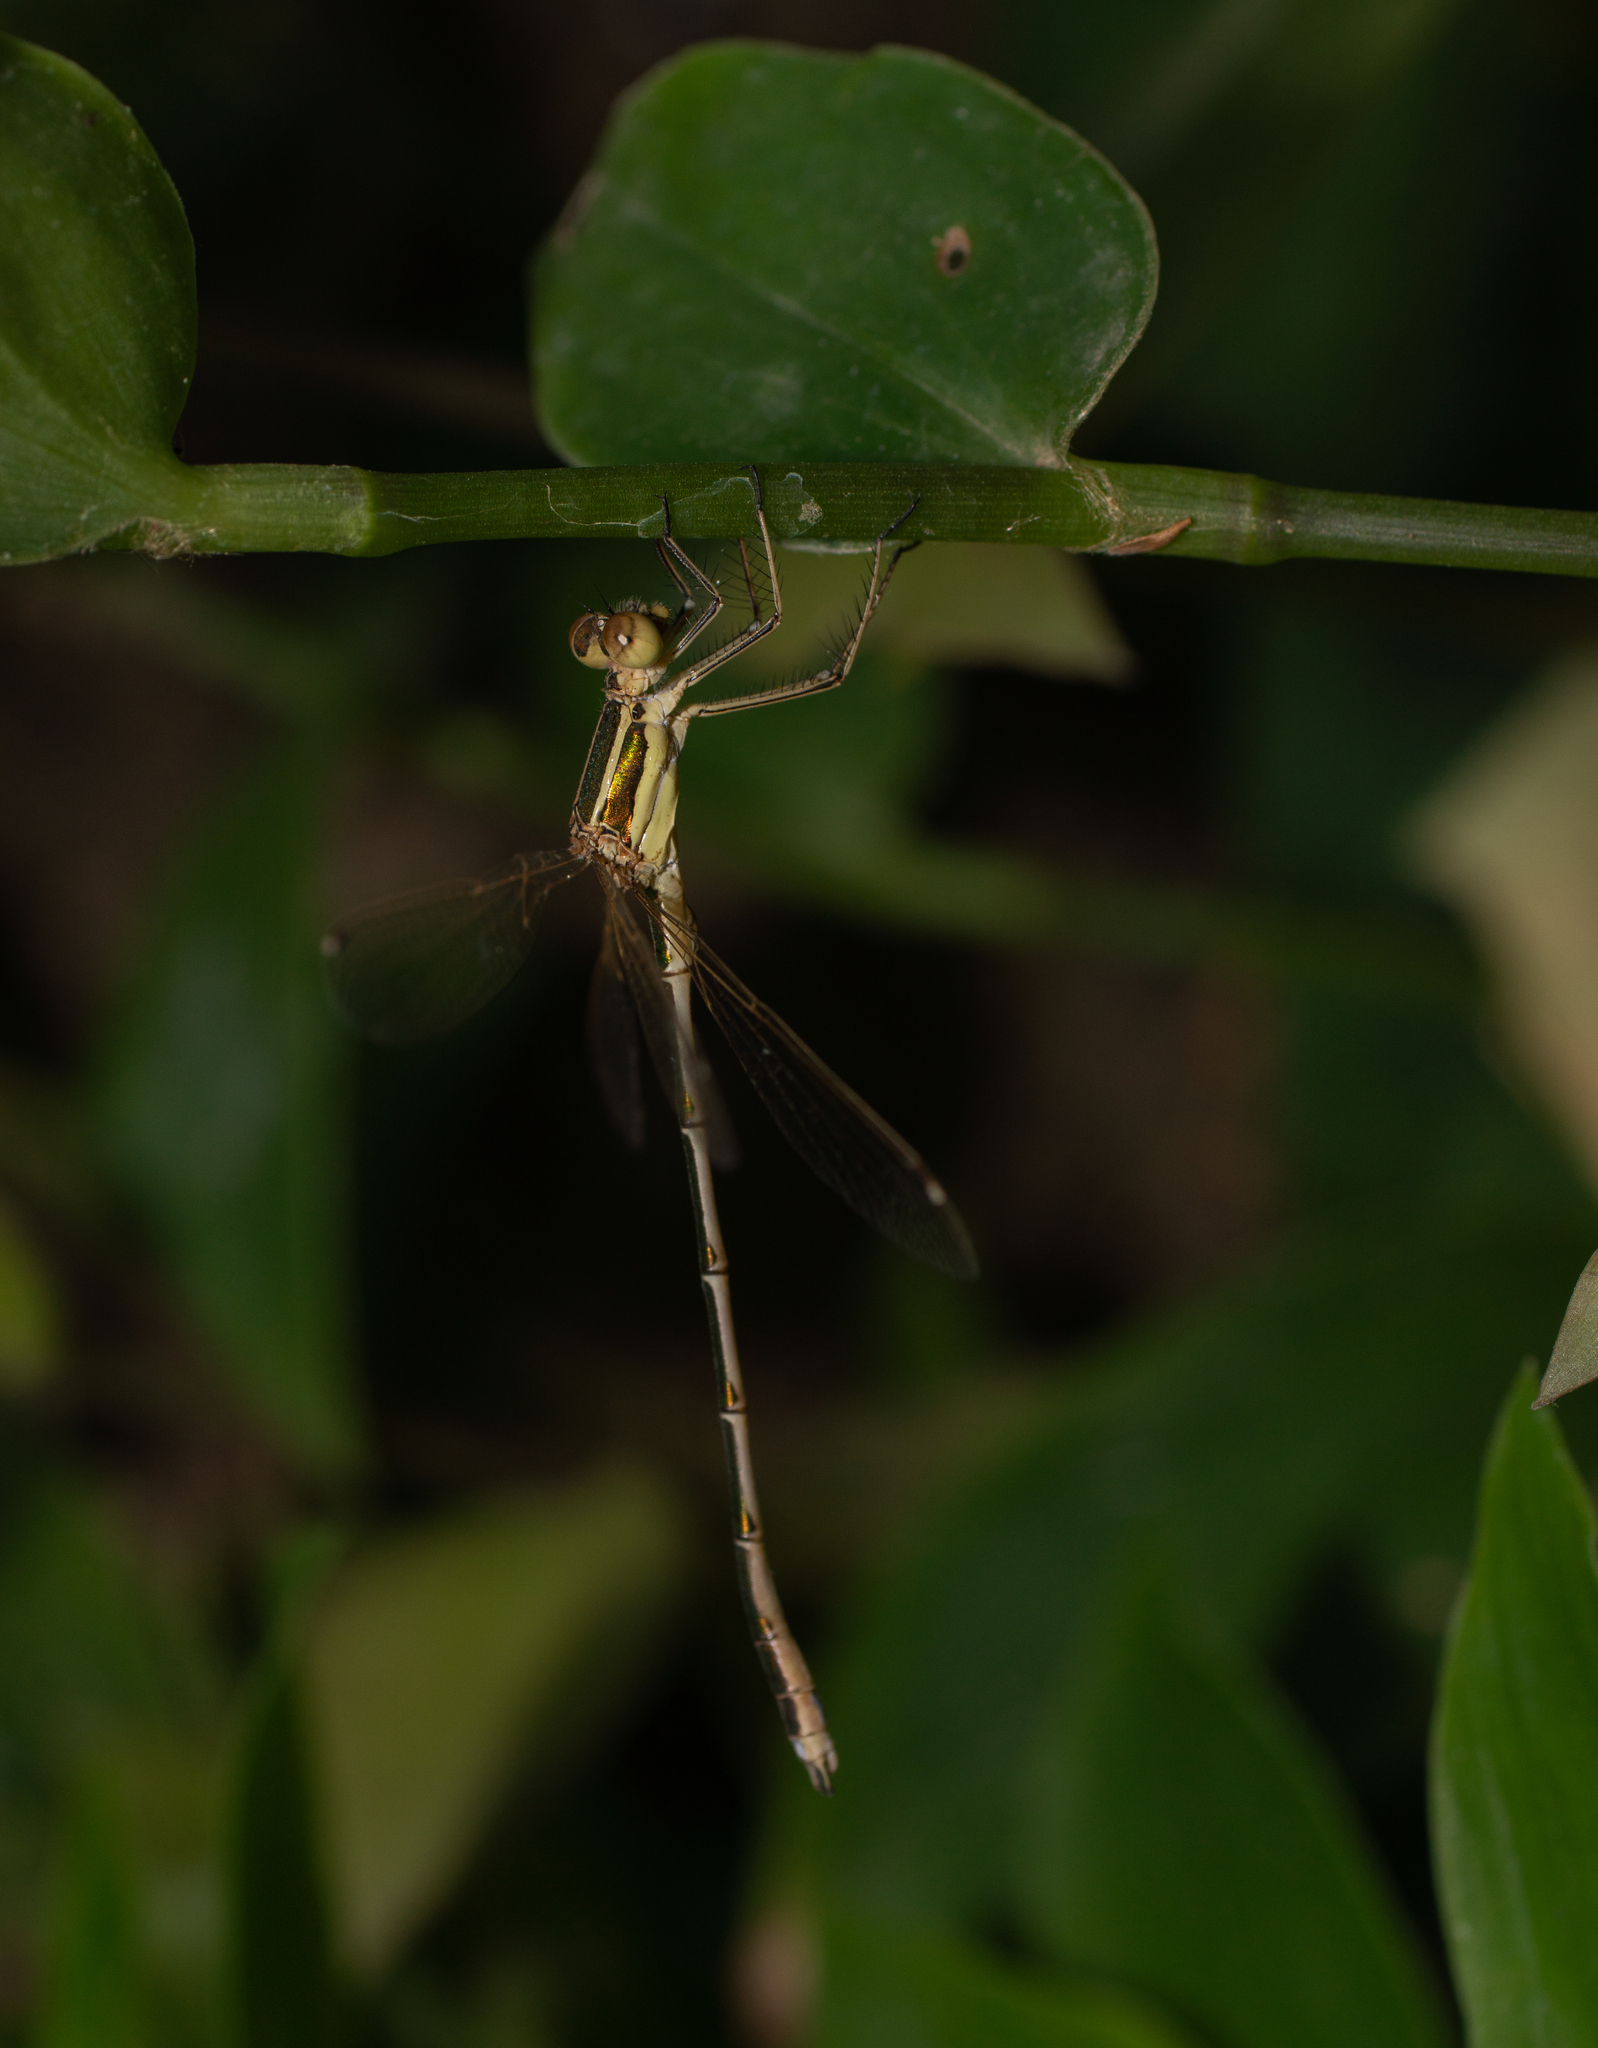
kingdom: Animalia
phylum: Arthropoda
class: Insecta
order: Odonata
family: Lestidae
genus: Lestes
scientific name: Lestes barbarus
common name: Migrant spreadwing
